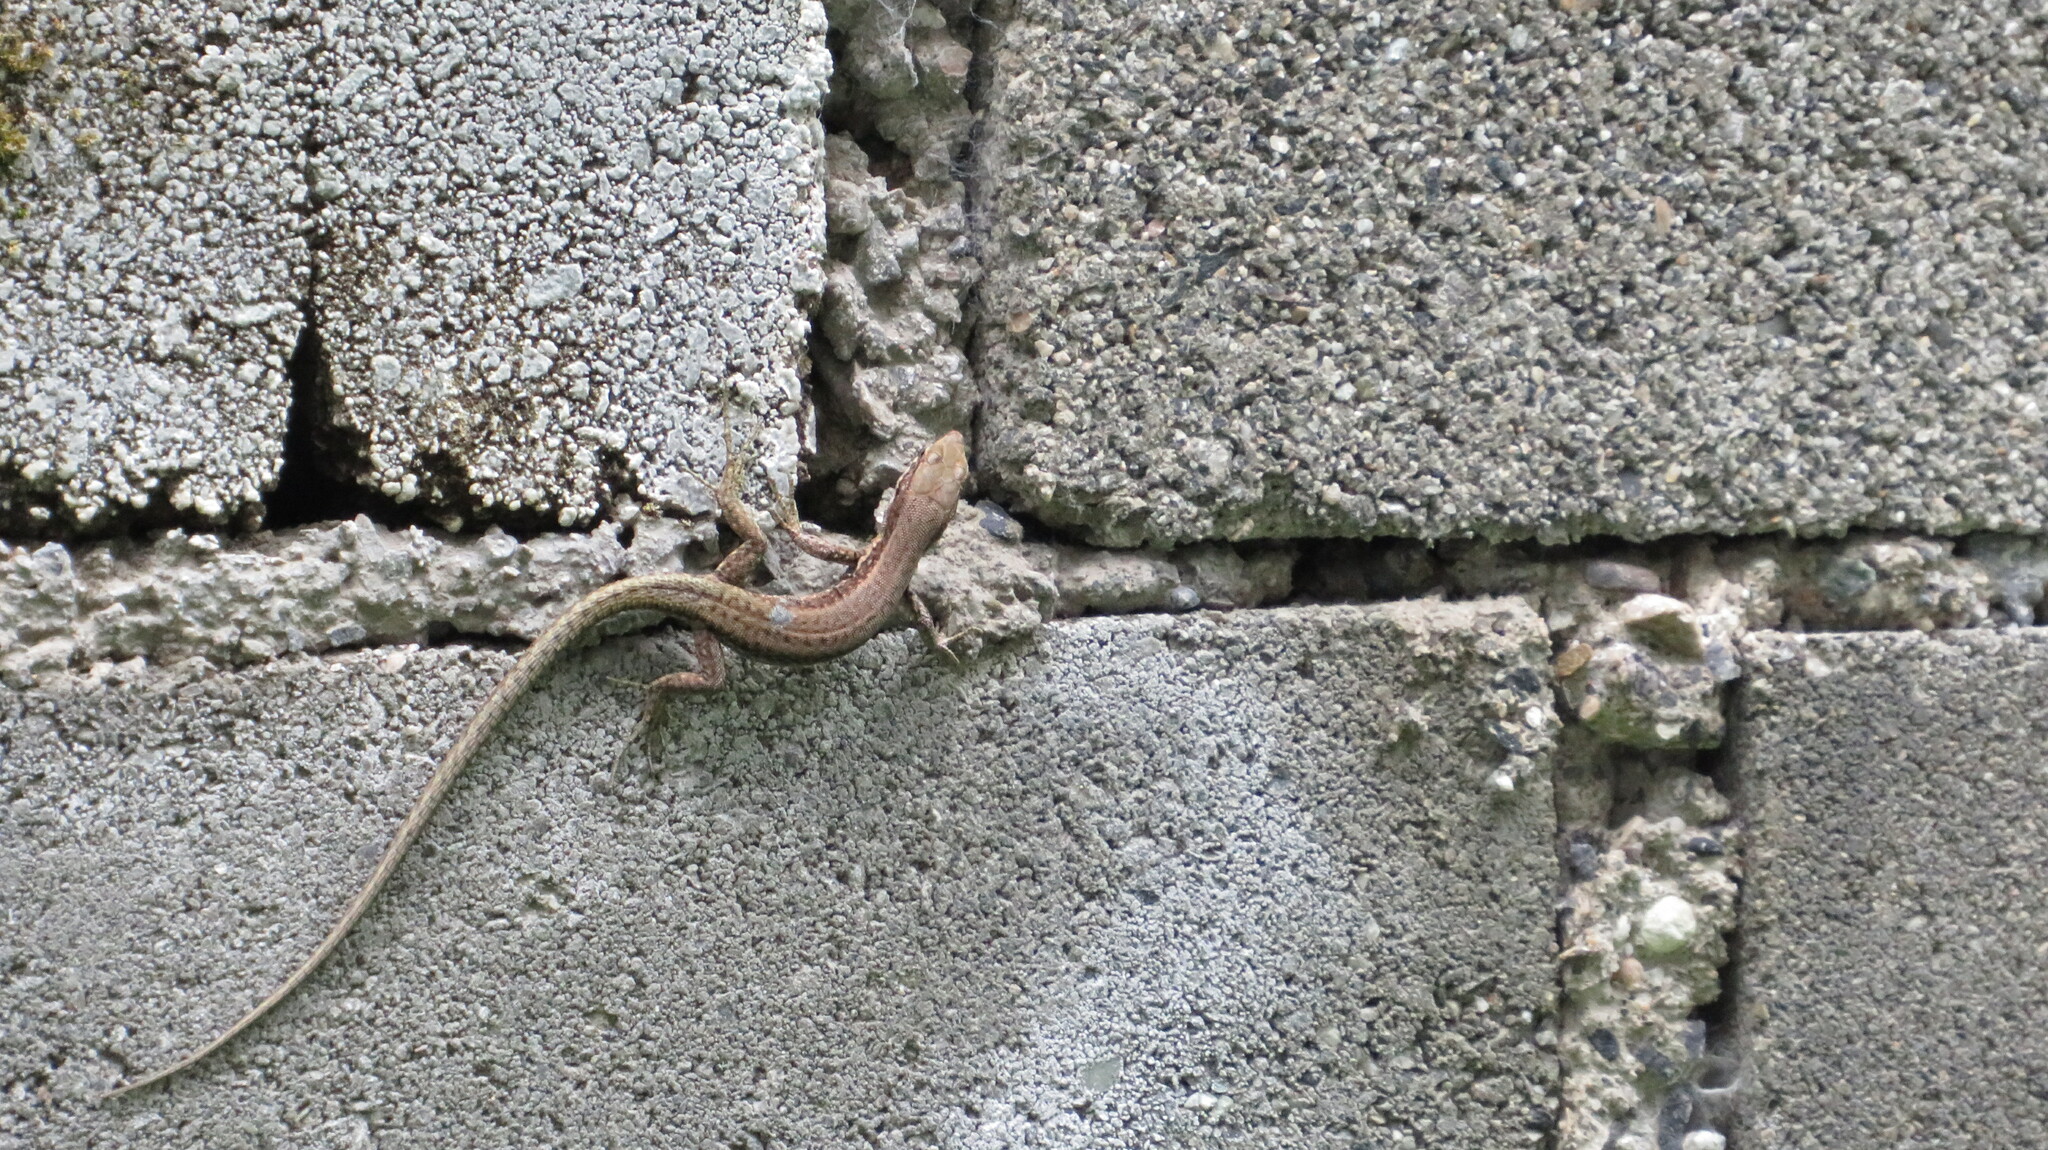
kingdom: Animalia
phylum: Chordata
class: Squamata
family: Lacertidae
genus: Darevskia
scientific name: Darevskia praticola
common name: Meadow lizard
